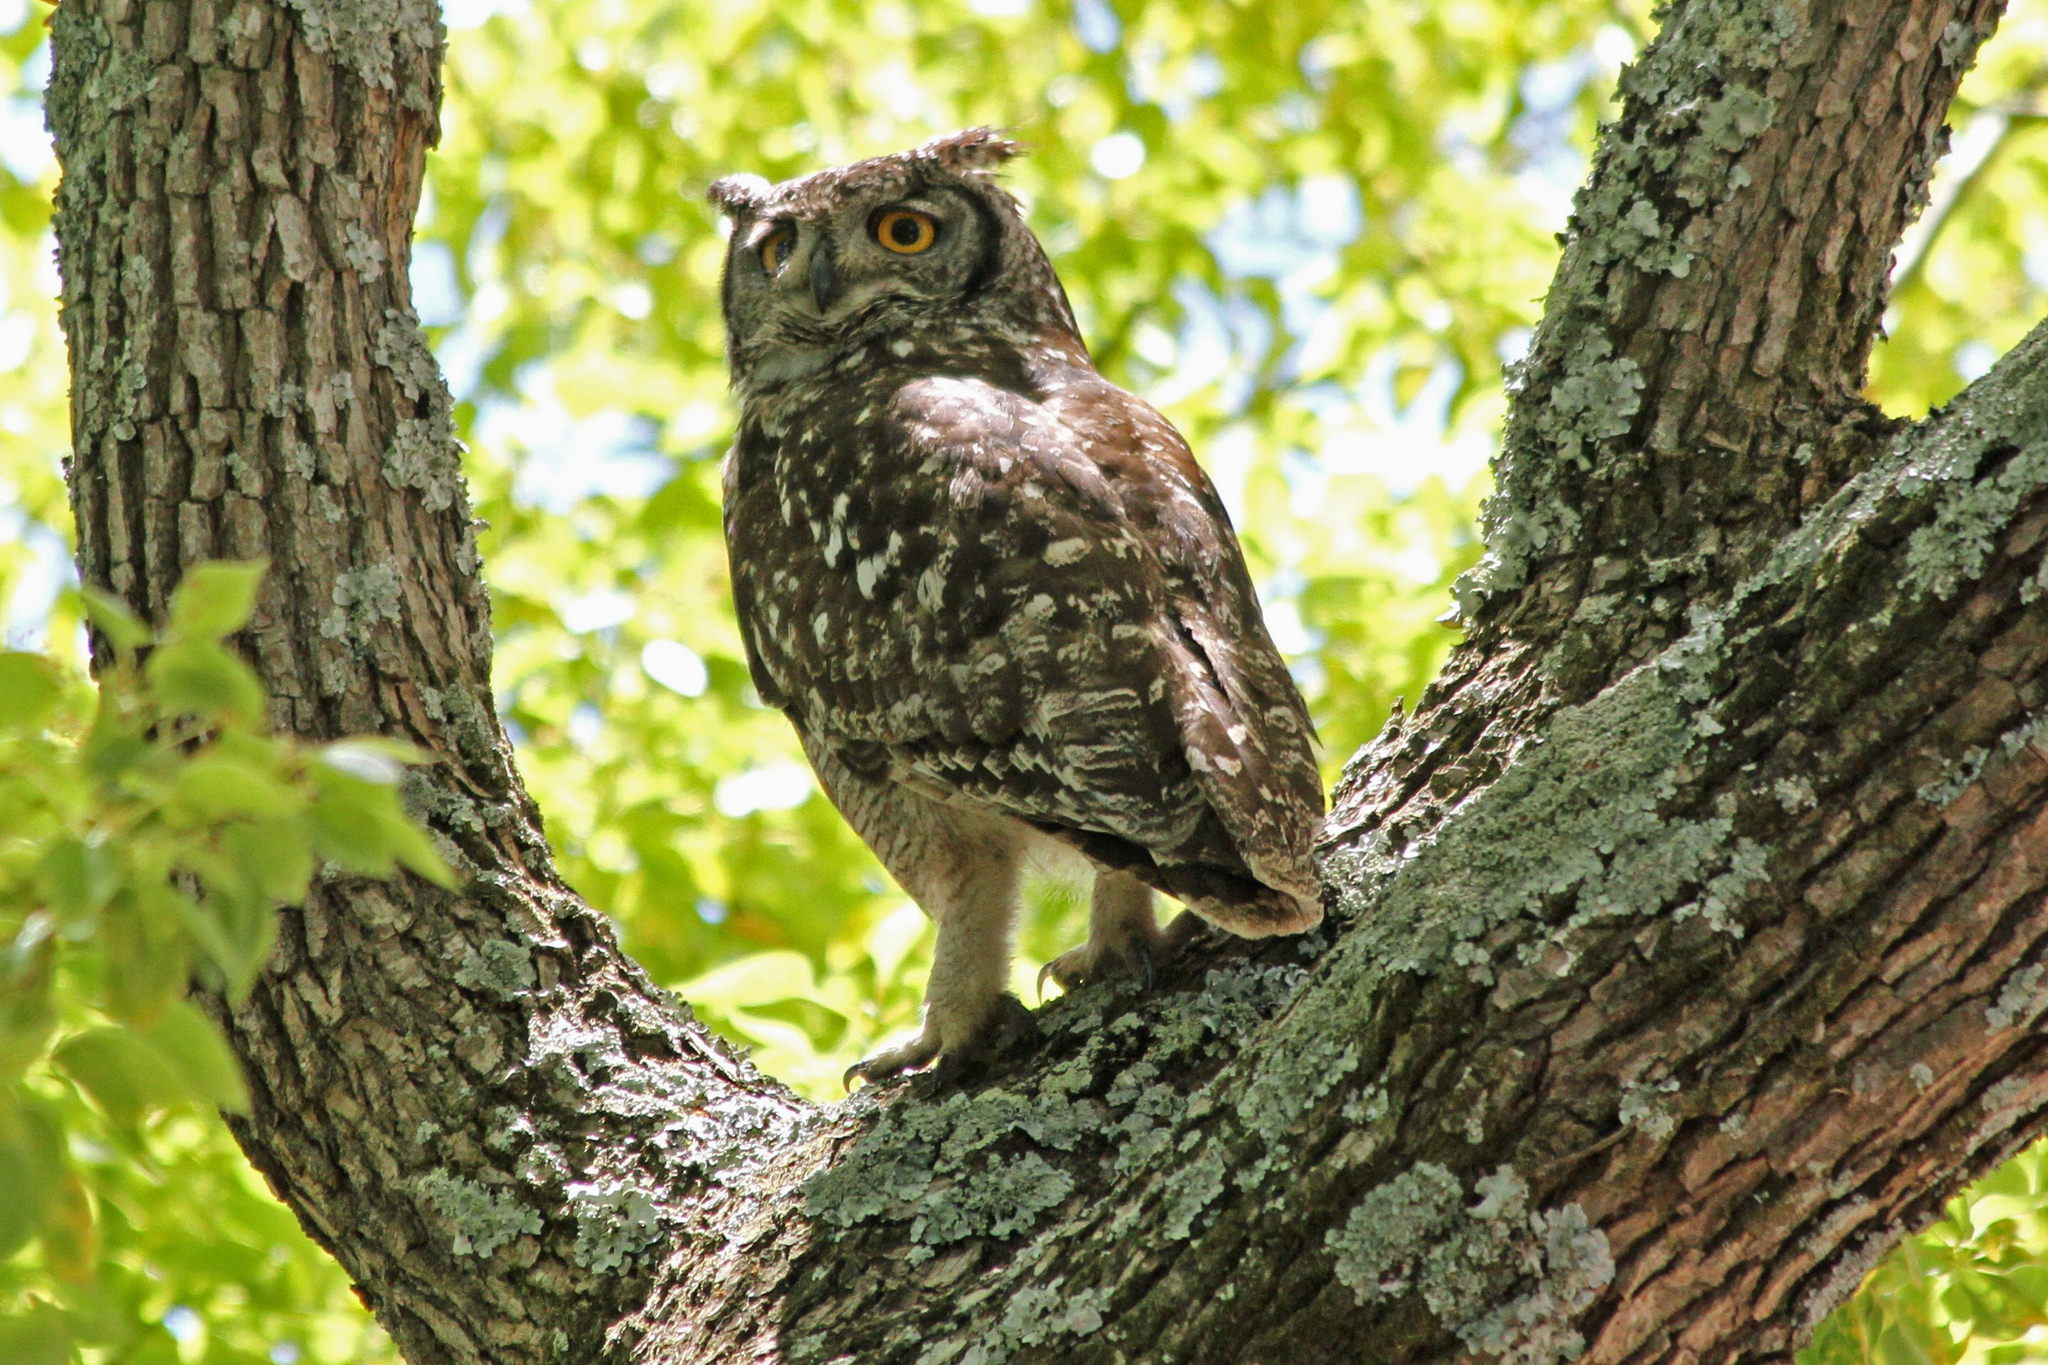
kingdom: Animalia
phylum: Chordata
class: Aves
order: Strigiformes
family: Strigidae
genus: Bubo
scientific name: Bubo africanus
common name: Spotted eagle-owl
